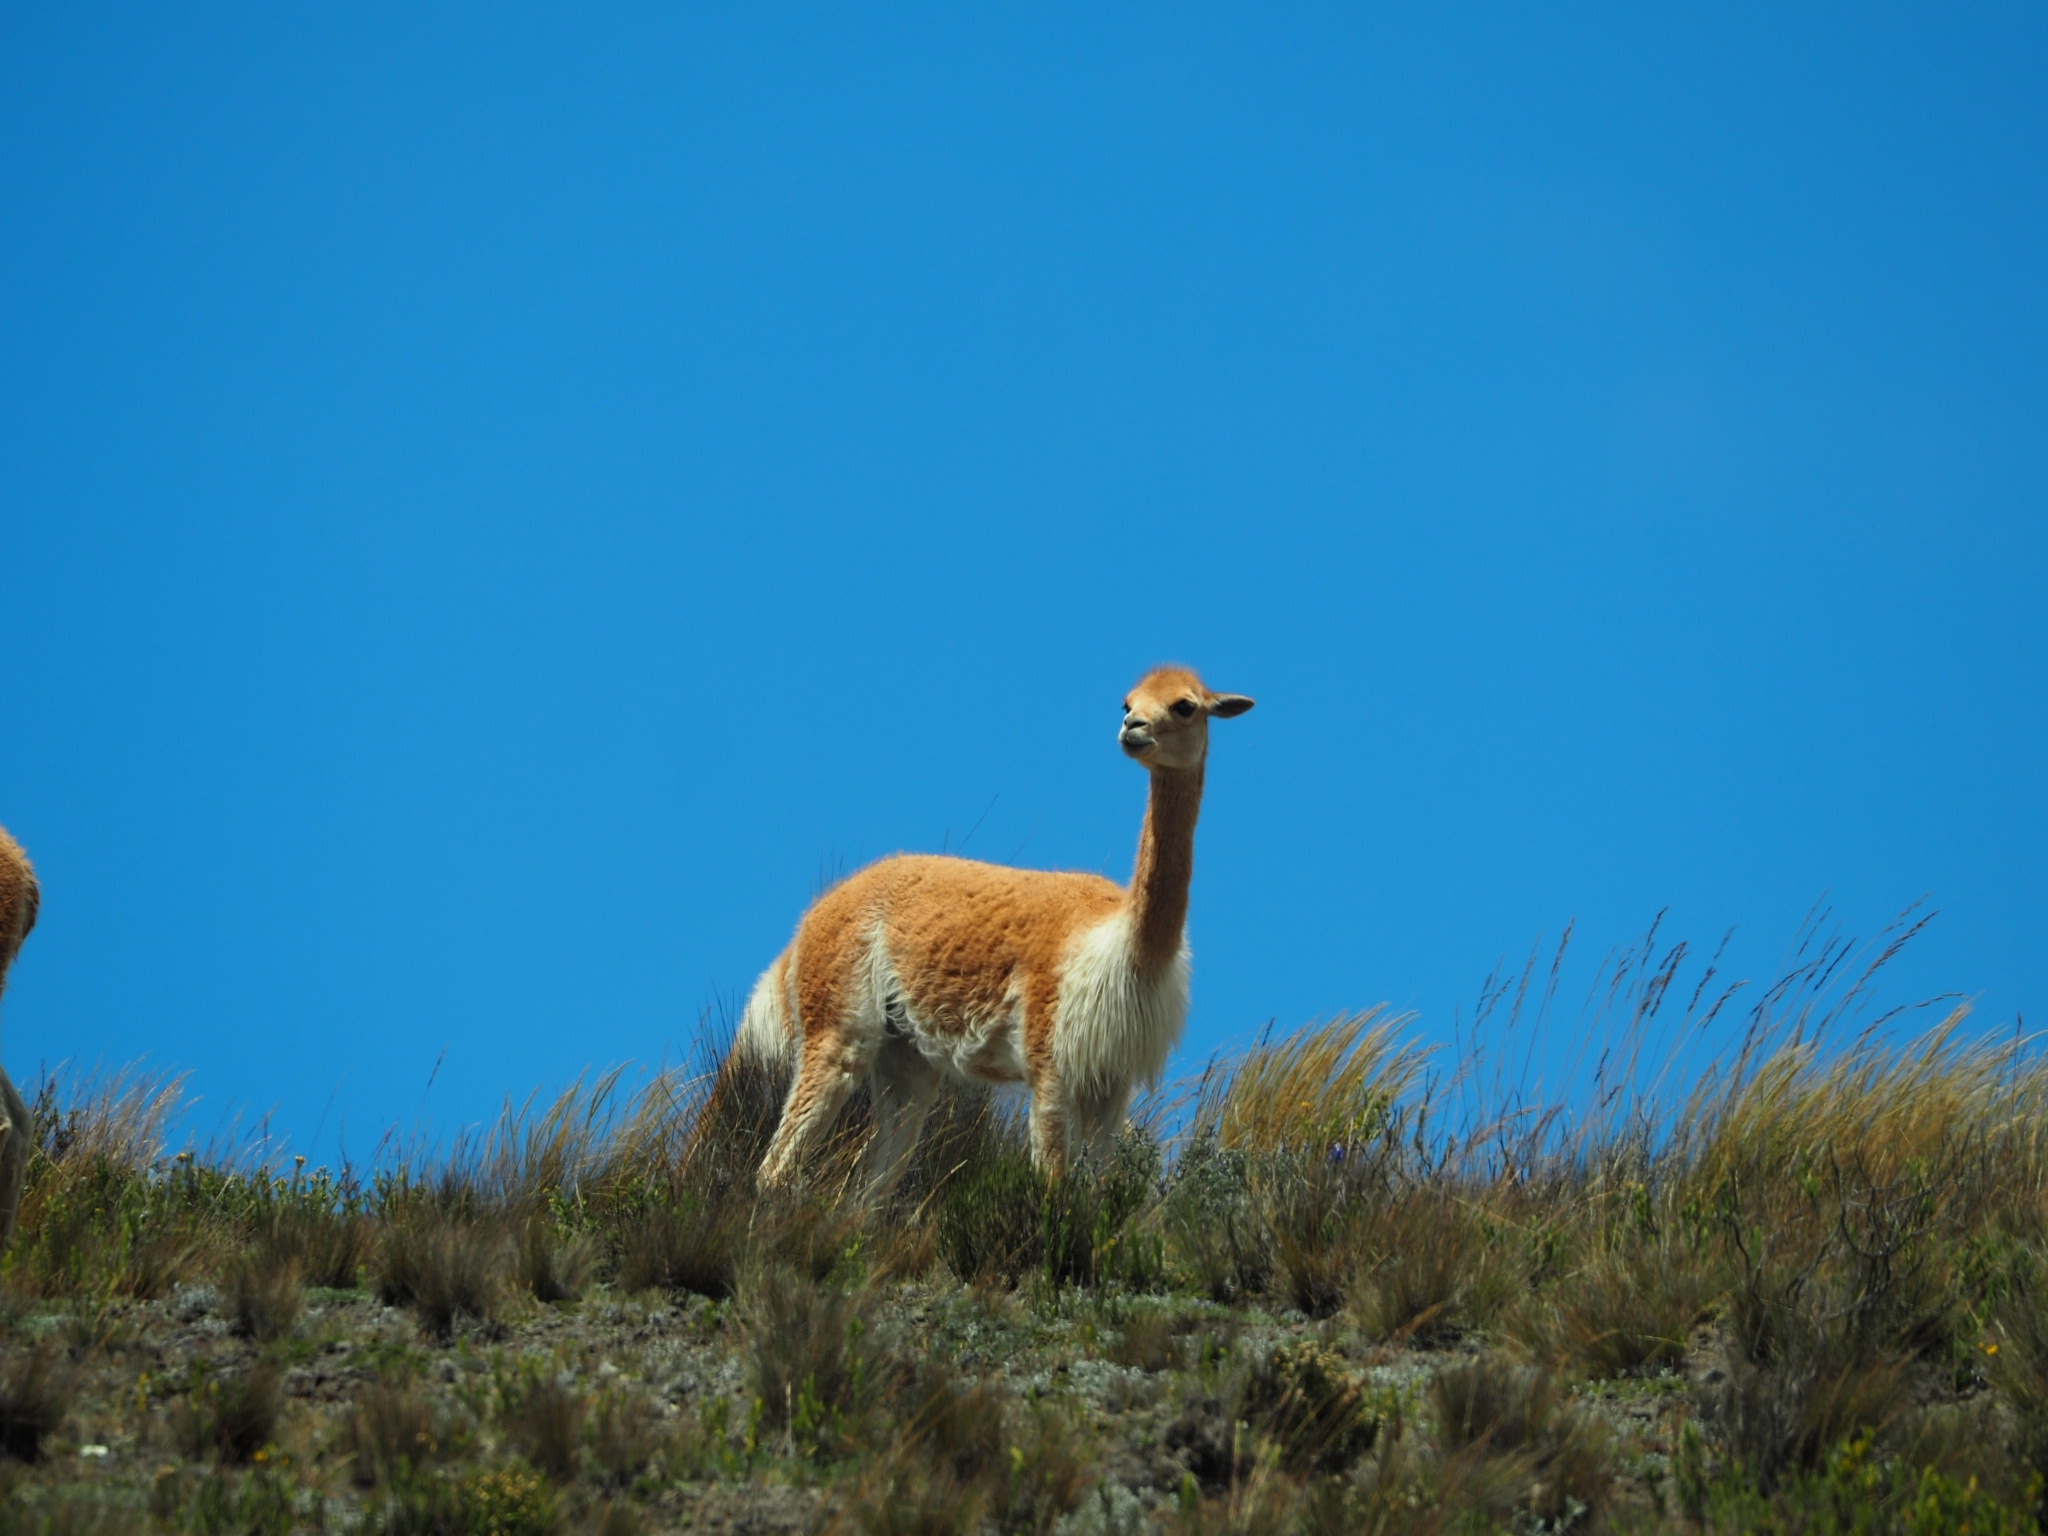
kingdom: Animalia
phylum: Chordata
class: Mammalia
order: Artiodactyla
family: Camelidae
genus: Vicugna
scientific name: Vicugna vicugna
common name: Vicugna
